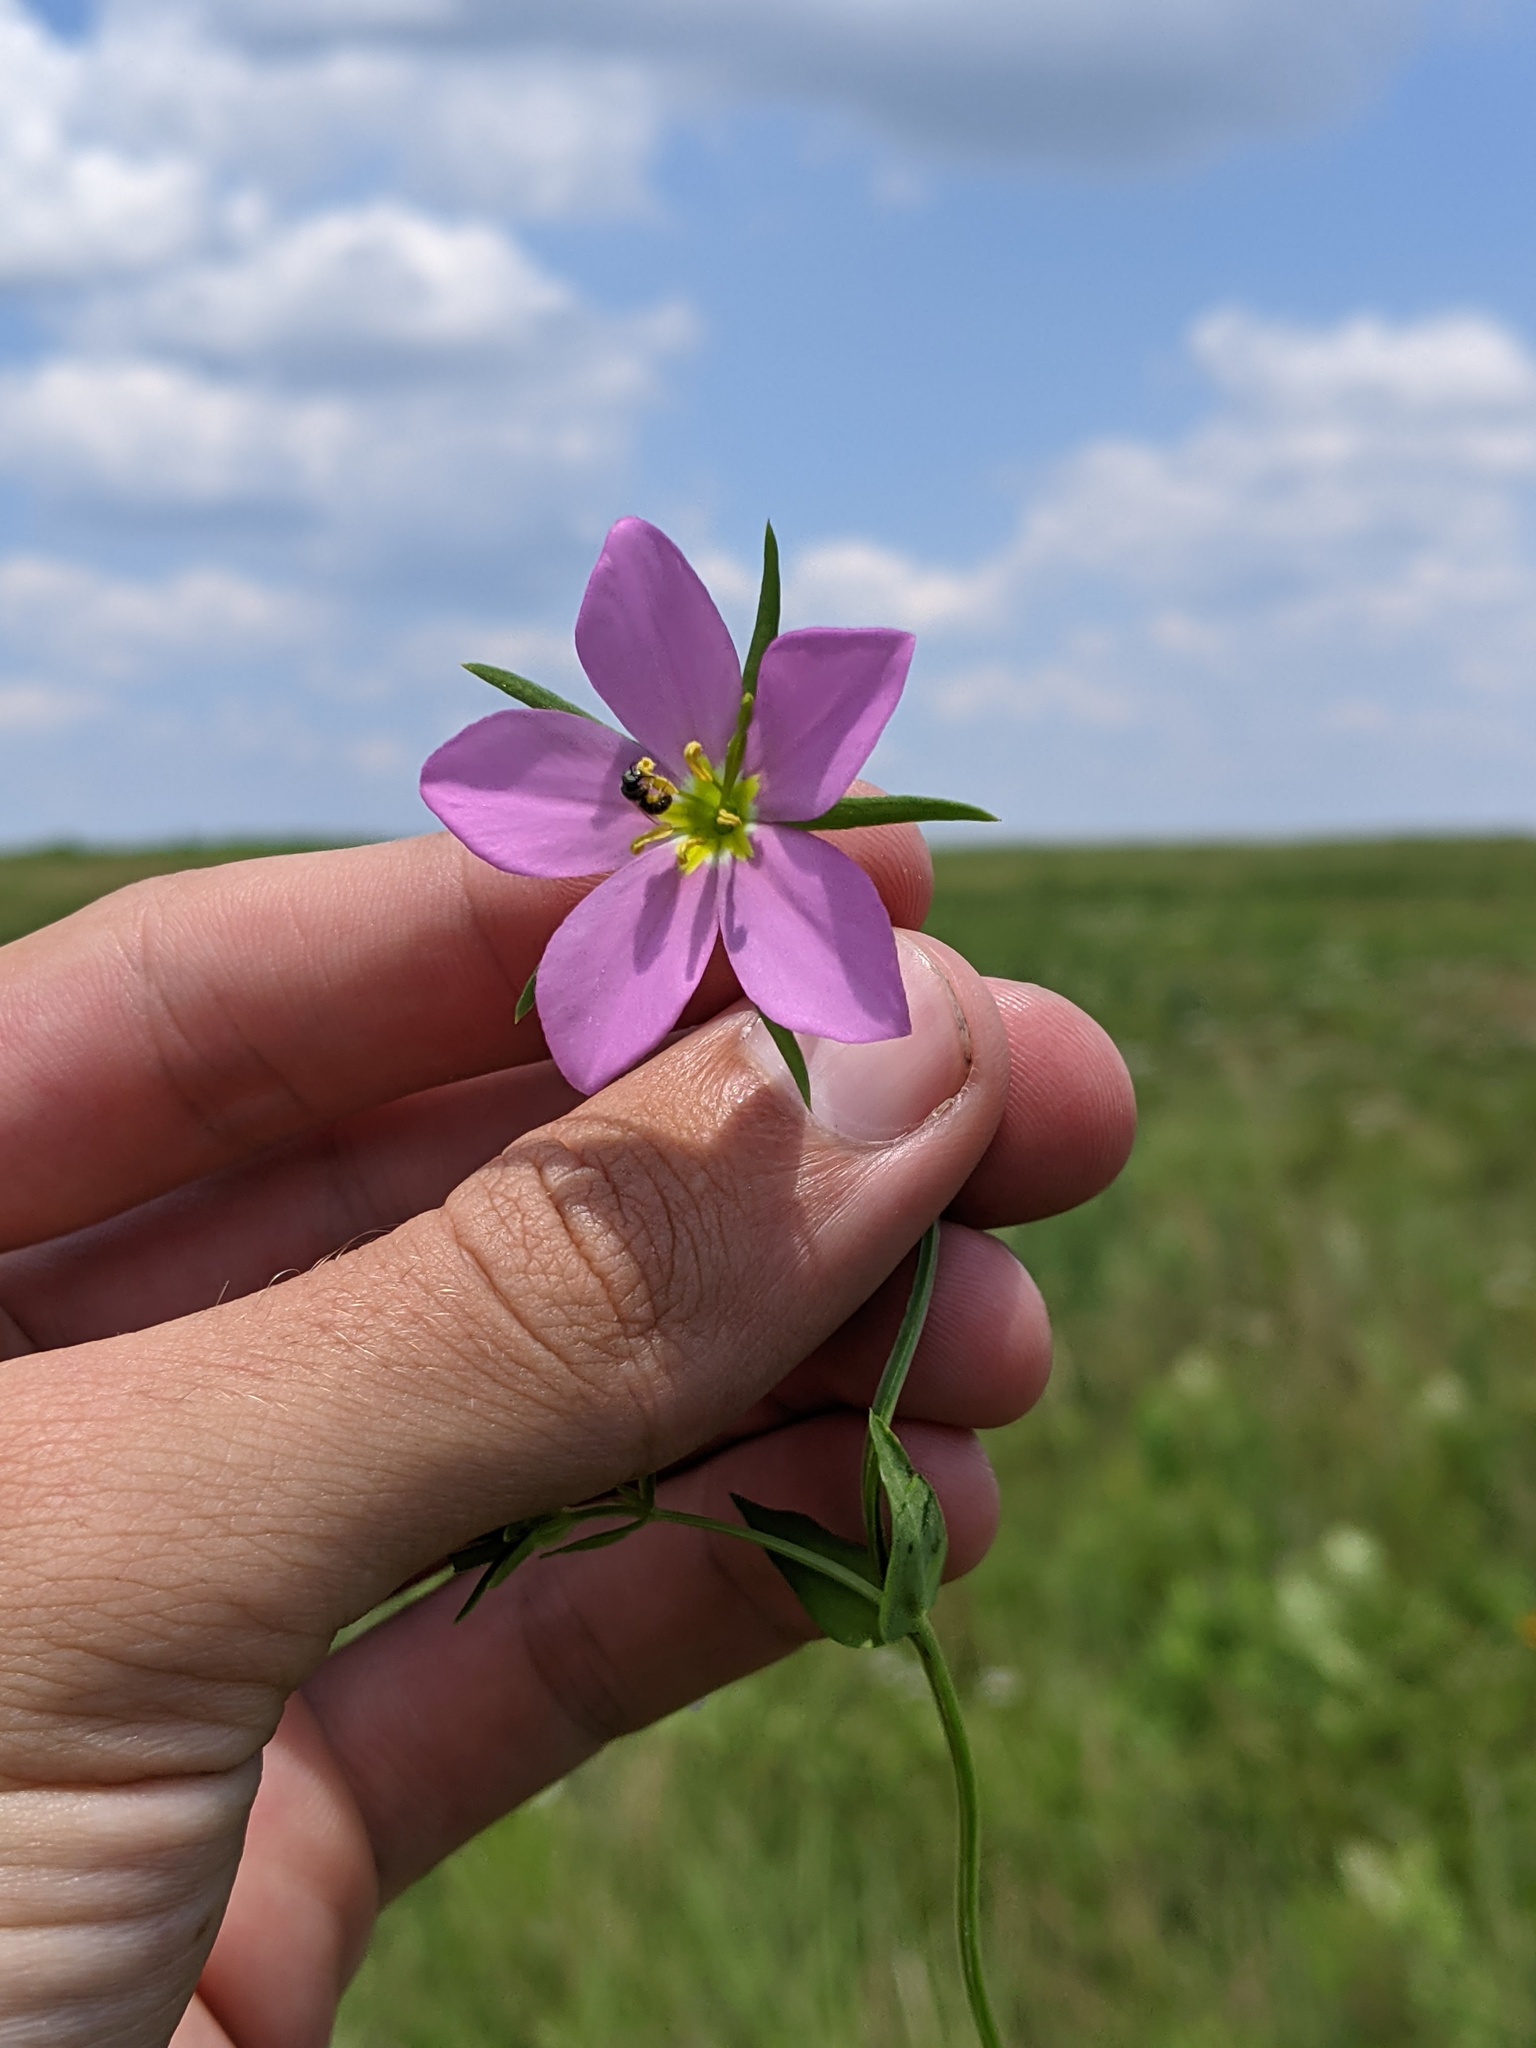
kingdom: Plantae
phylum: Tracheophyta
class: Magnoliopsida
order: Gentianales
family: Gentianaceae
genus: Sabatia
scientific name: Sabatia campestris
